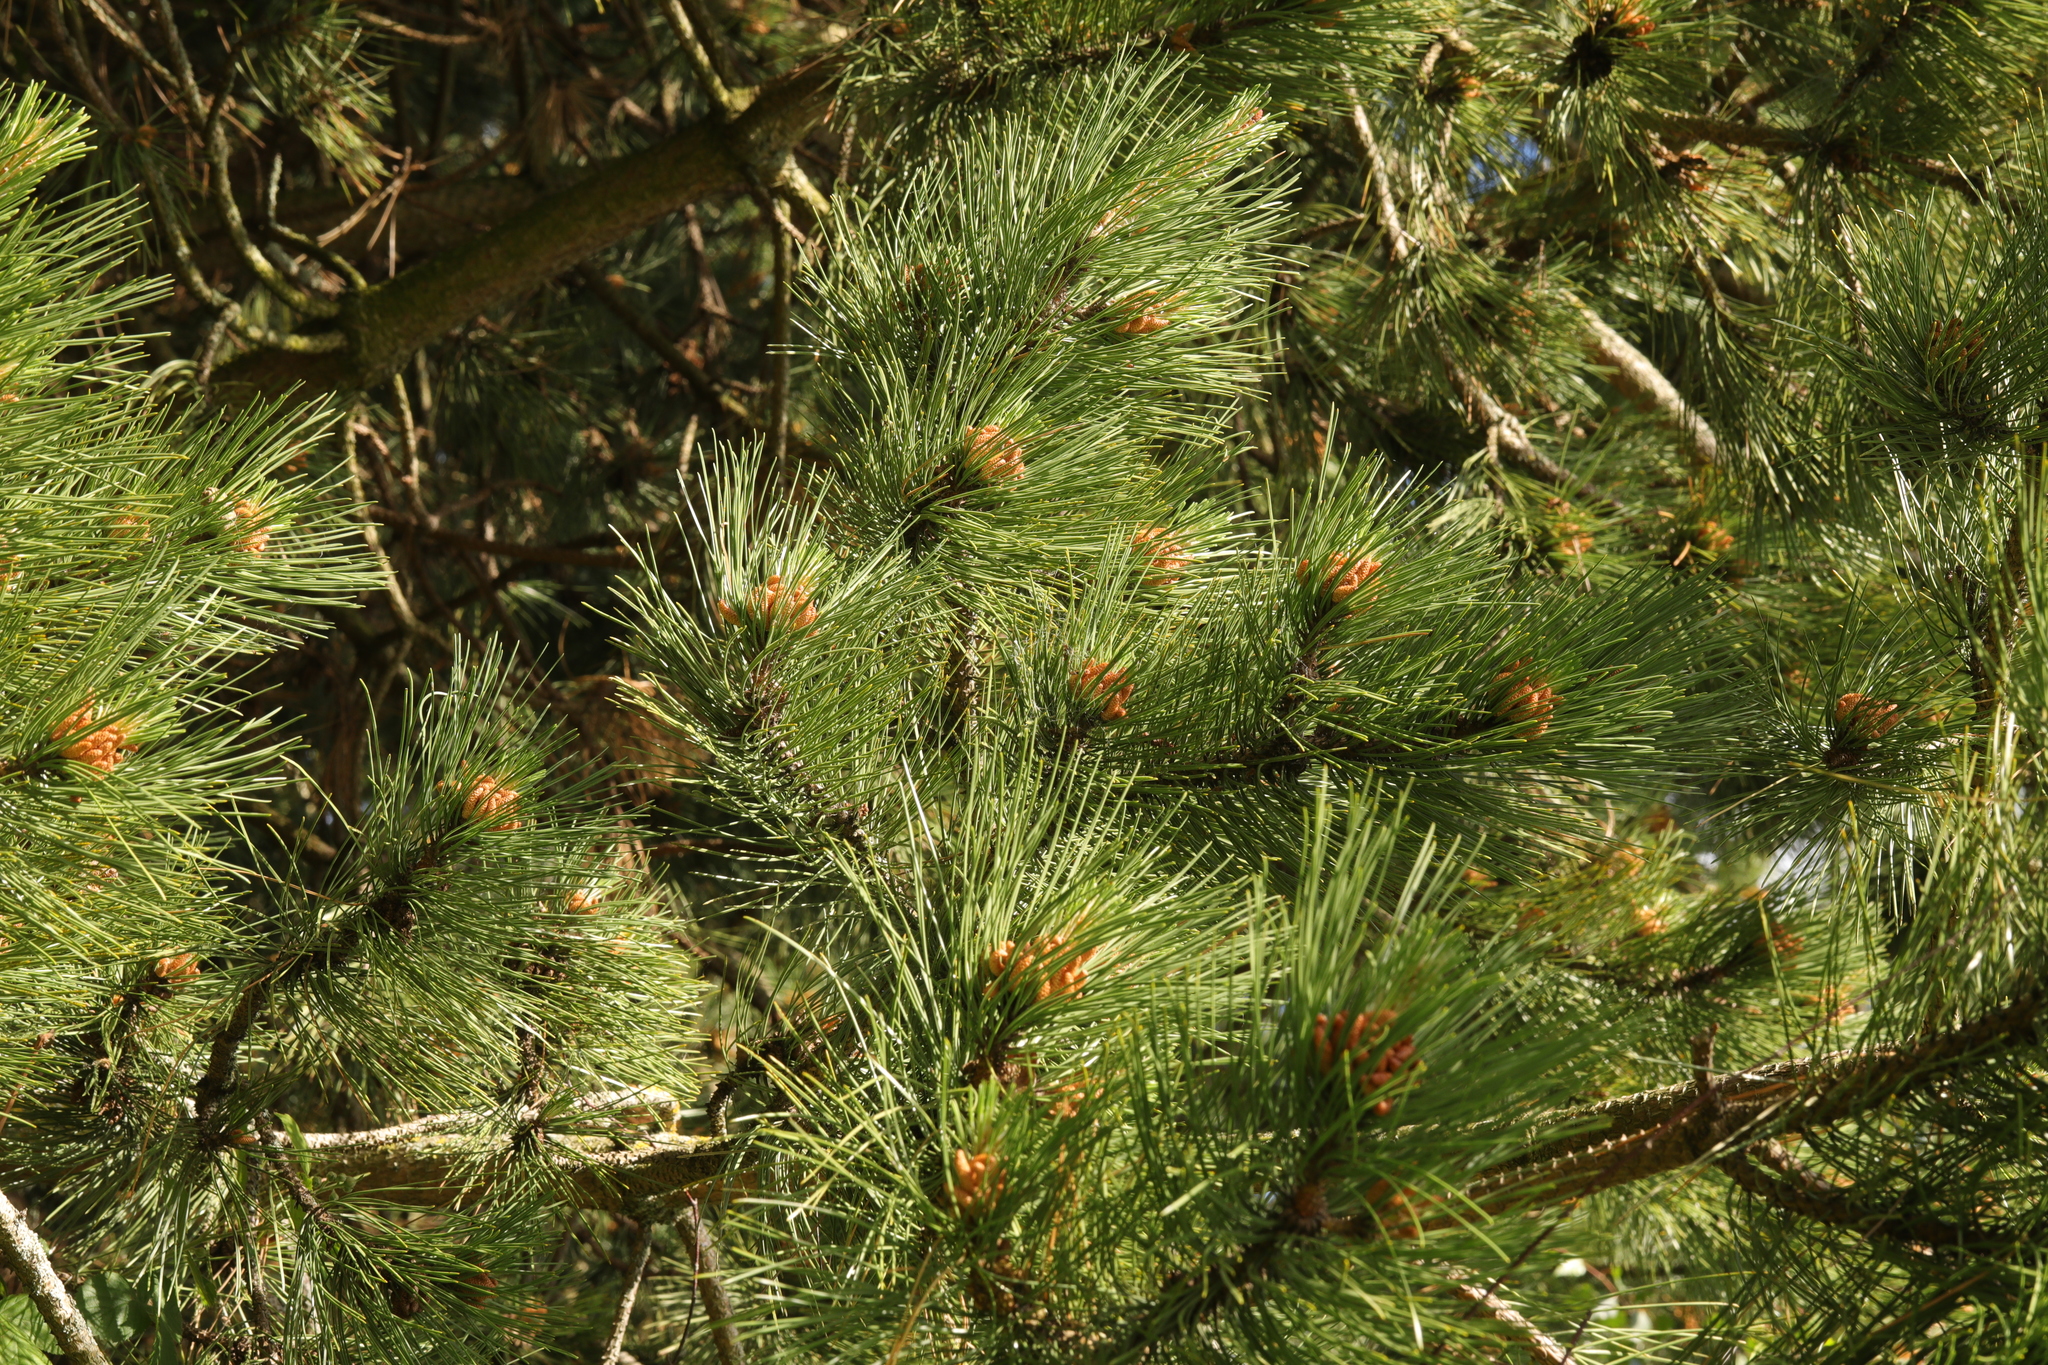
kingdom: Plantae
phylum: Tracheophyta
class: Pinopsida
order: Pinales
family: Pinaceae
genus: Pinus
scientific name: Pinus sylvestris
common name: Scots pine
